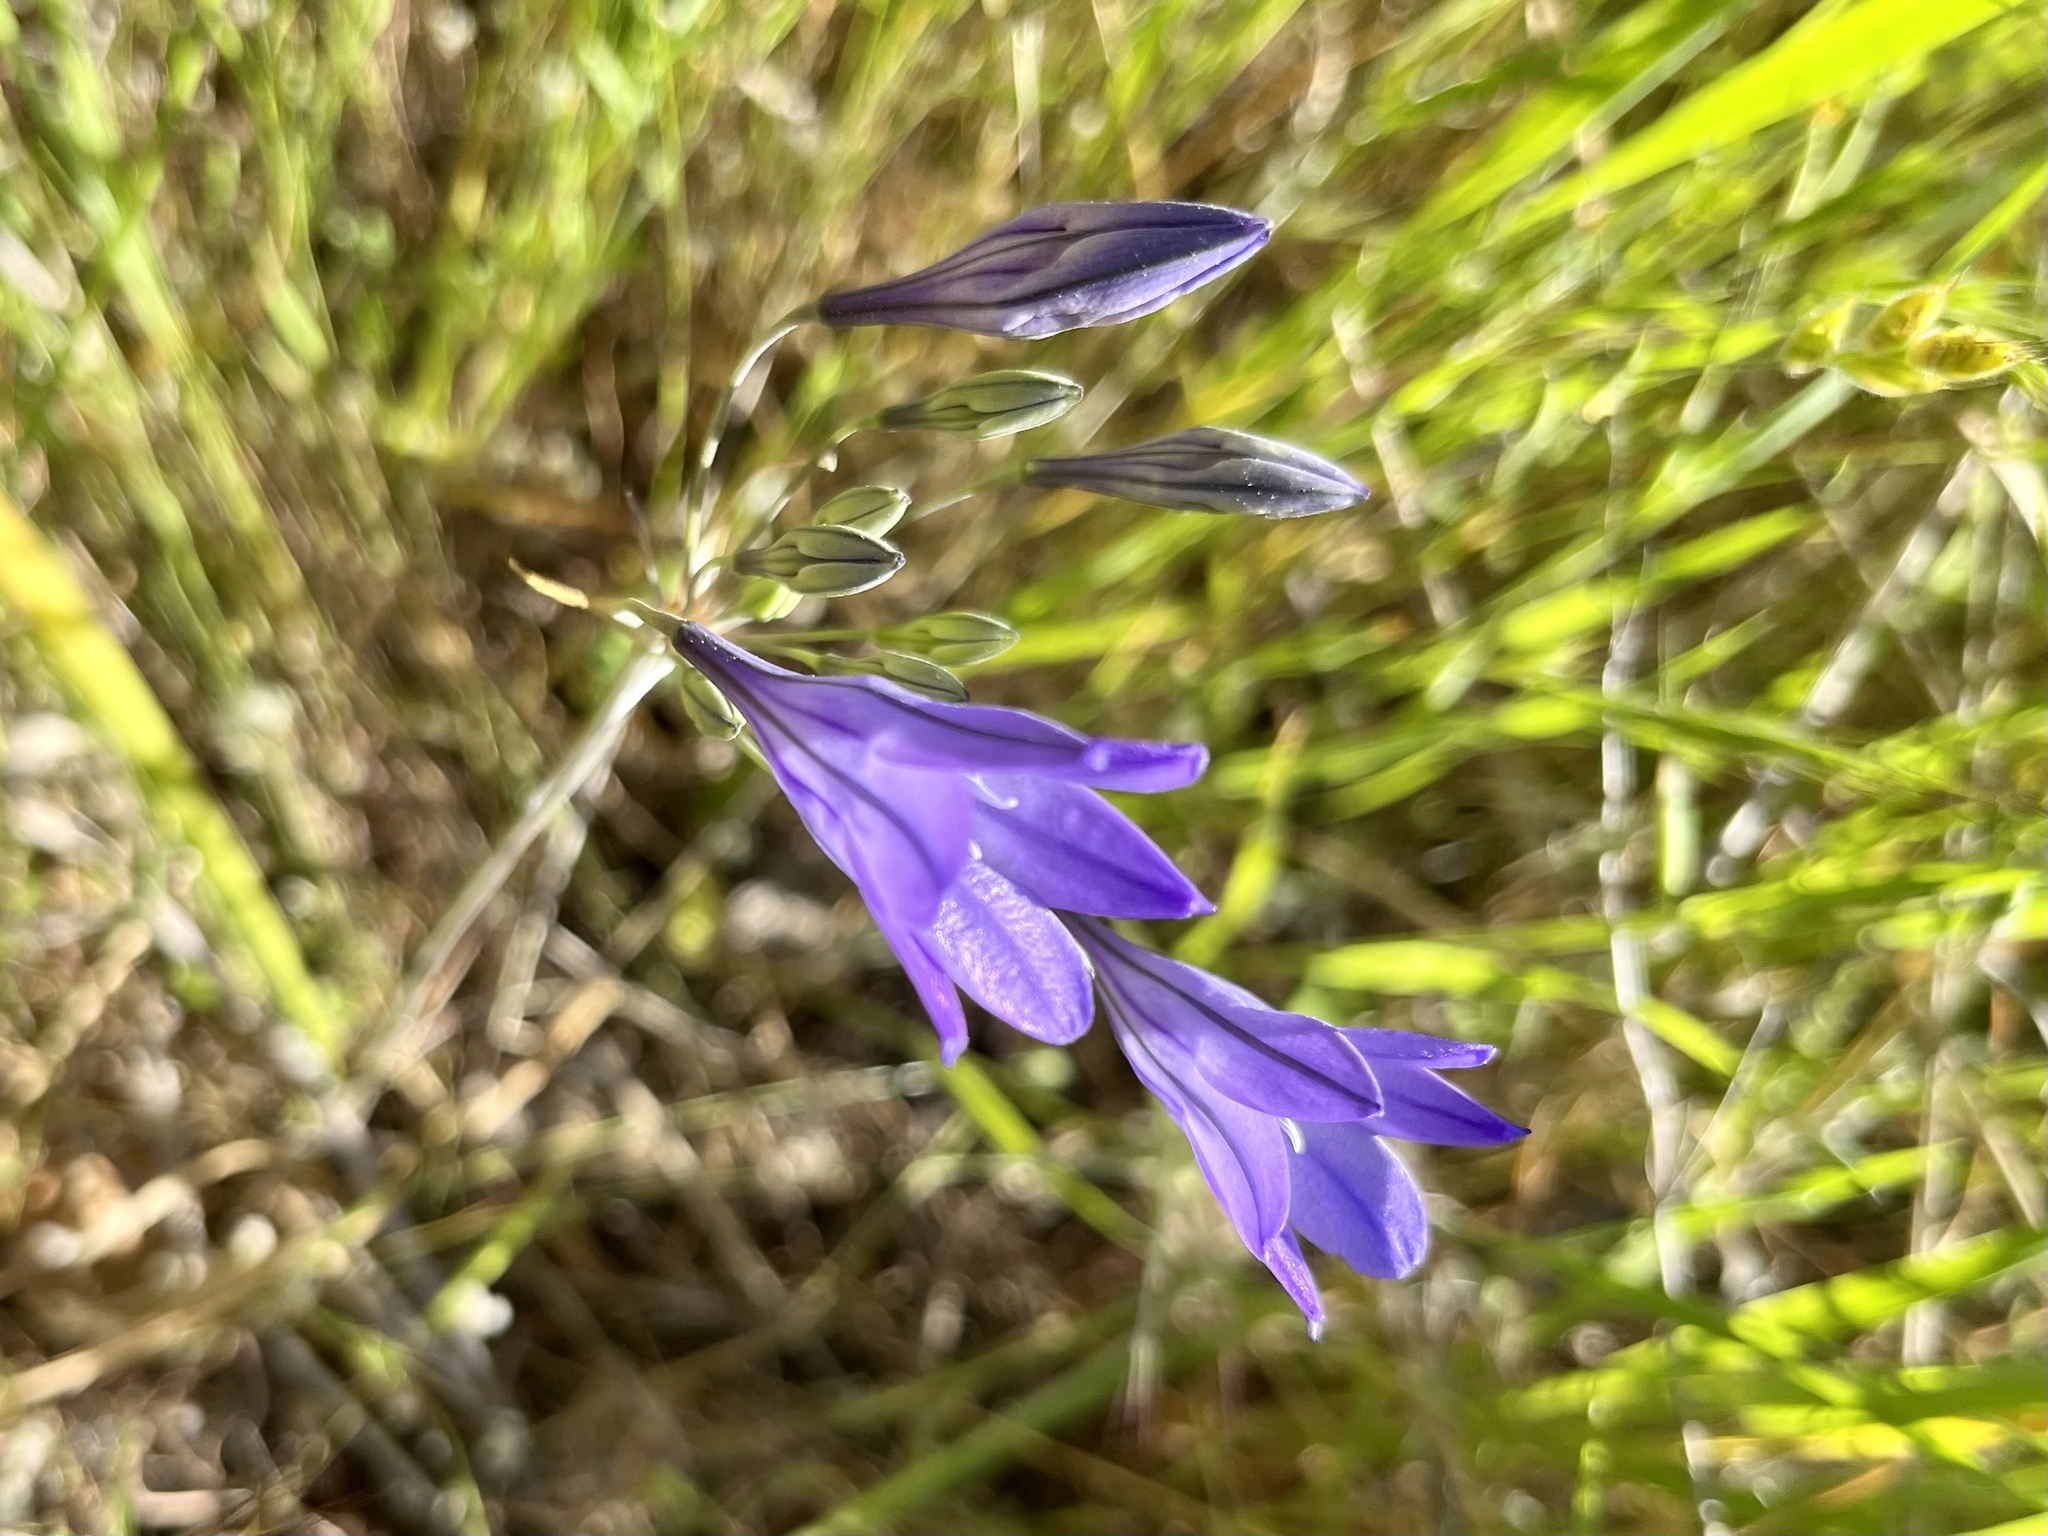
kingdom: Plantae
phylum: Tracheophyta
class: Liliopsida
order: Asparagales
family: Asparagaceae
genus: Triteleia
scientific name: Triteleia laxa
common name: Triplet-lily
